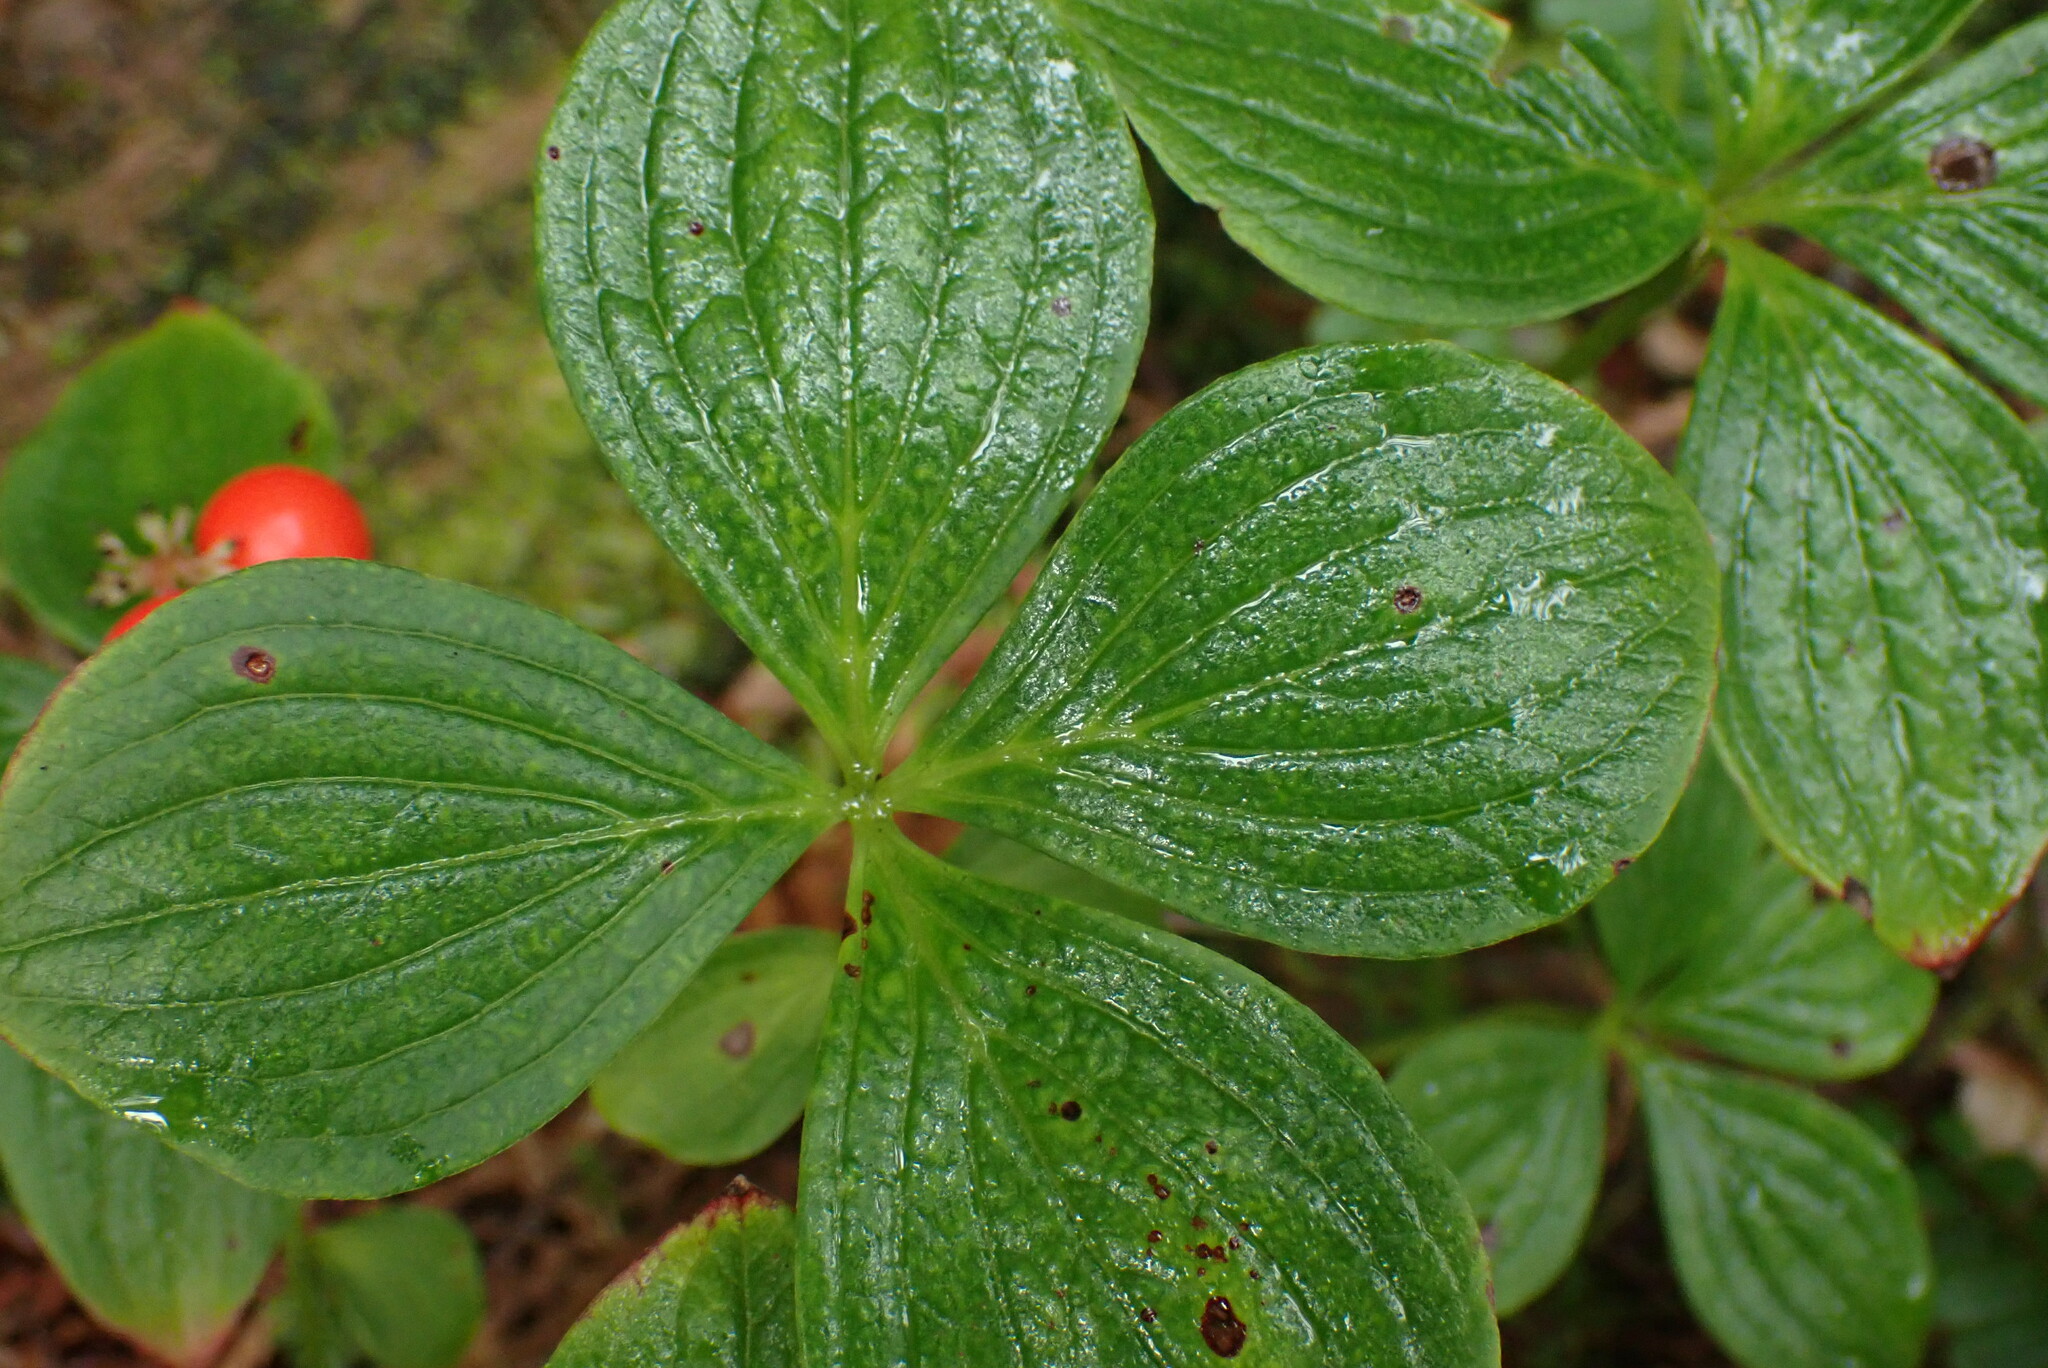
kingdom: Plantae
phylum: Tracheophyta
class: Magnoliopsida
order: Cornales
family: Cornaceae
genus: Cornus
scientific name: Cornus unalaschkensis
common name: Alaska bunchberry
